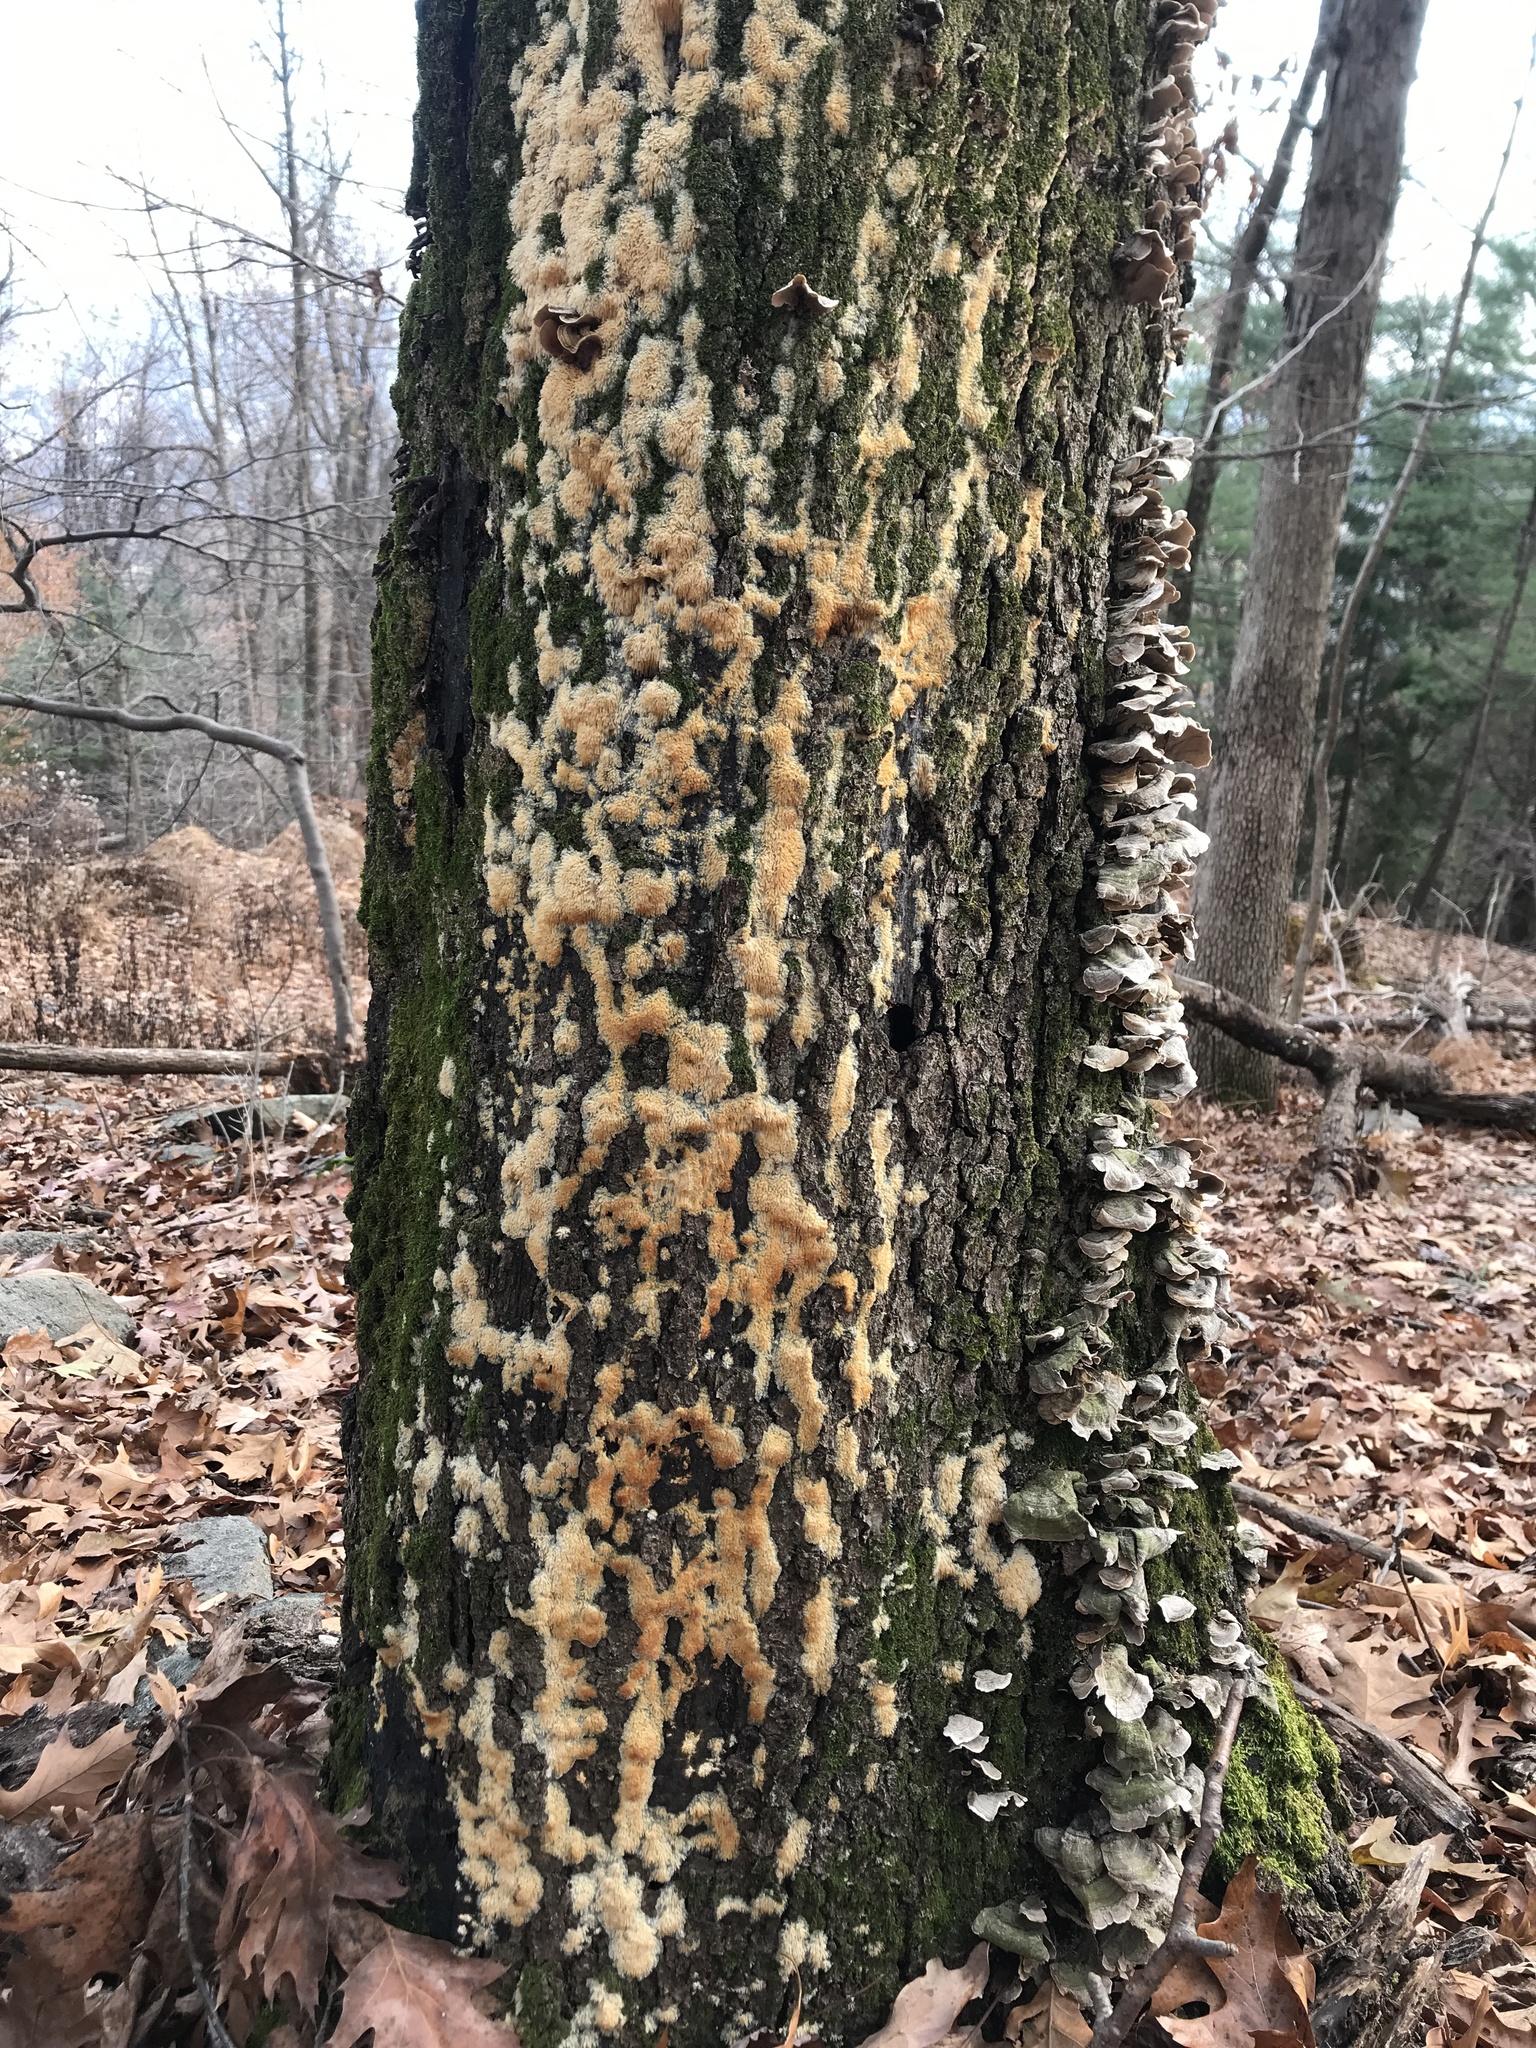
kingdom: Fungi
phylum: Basidiomycota
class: Agaricomycetes
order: Agaricales
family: Radulomycetaceae
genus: Radulomyces
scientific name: Radulomyces copelandii
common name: Asian beauty
